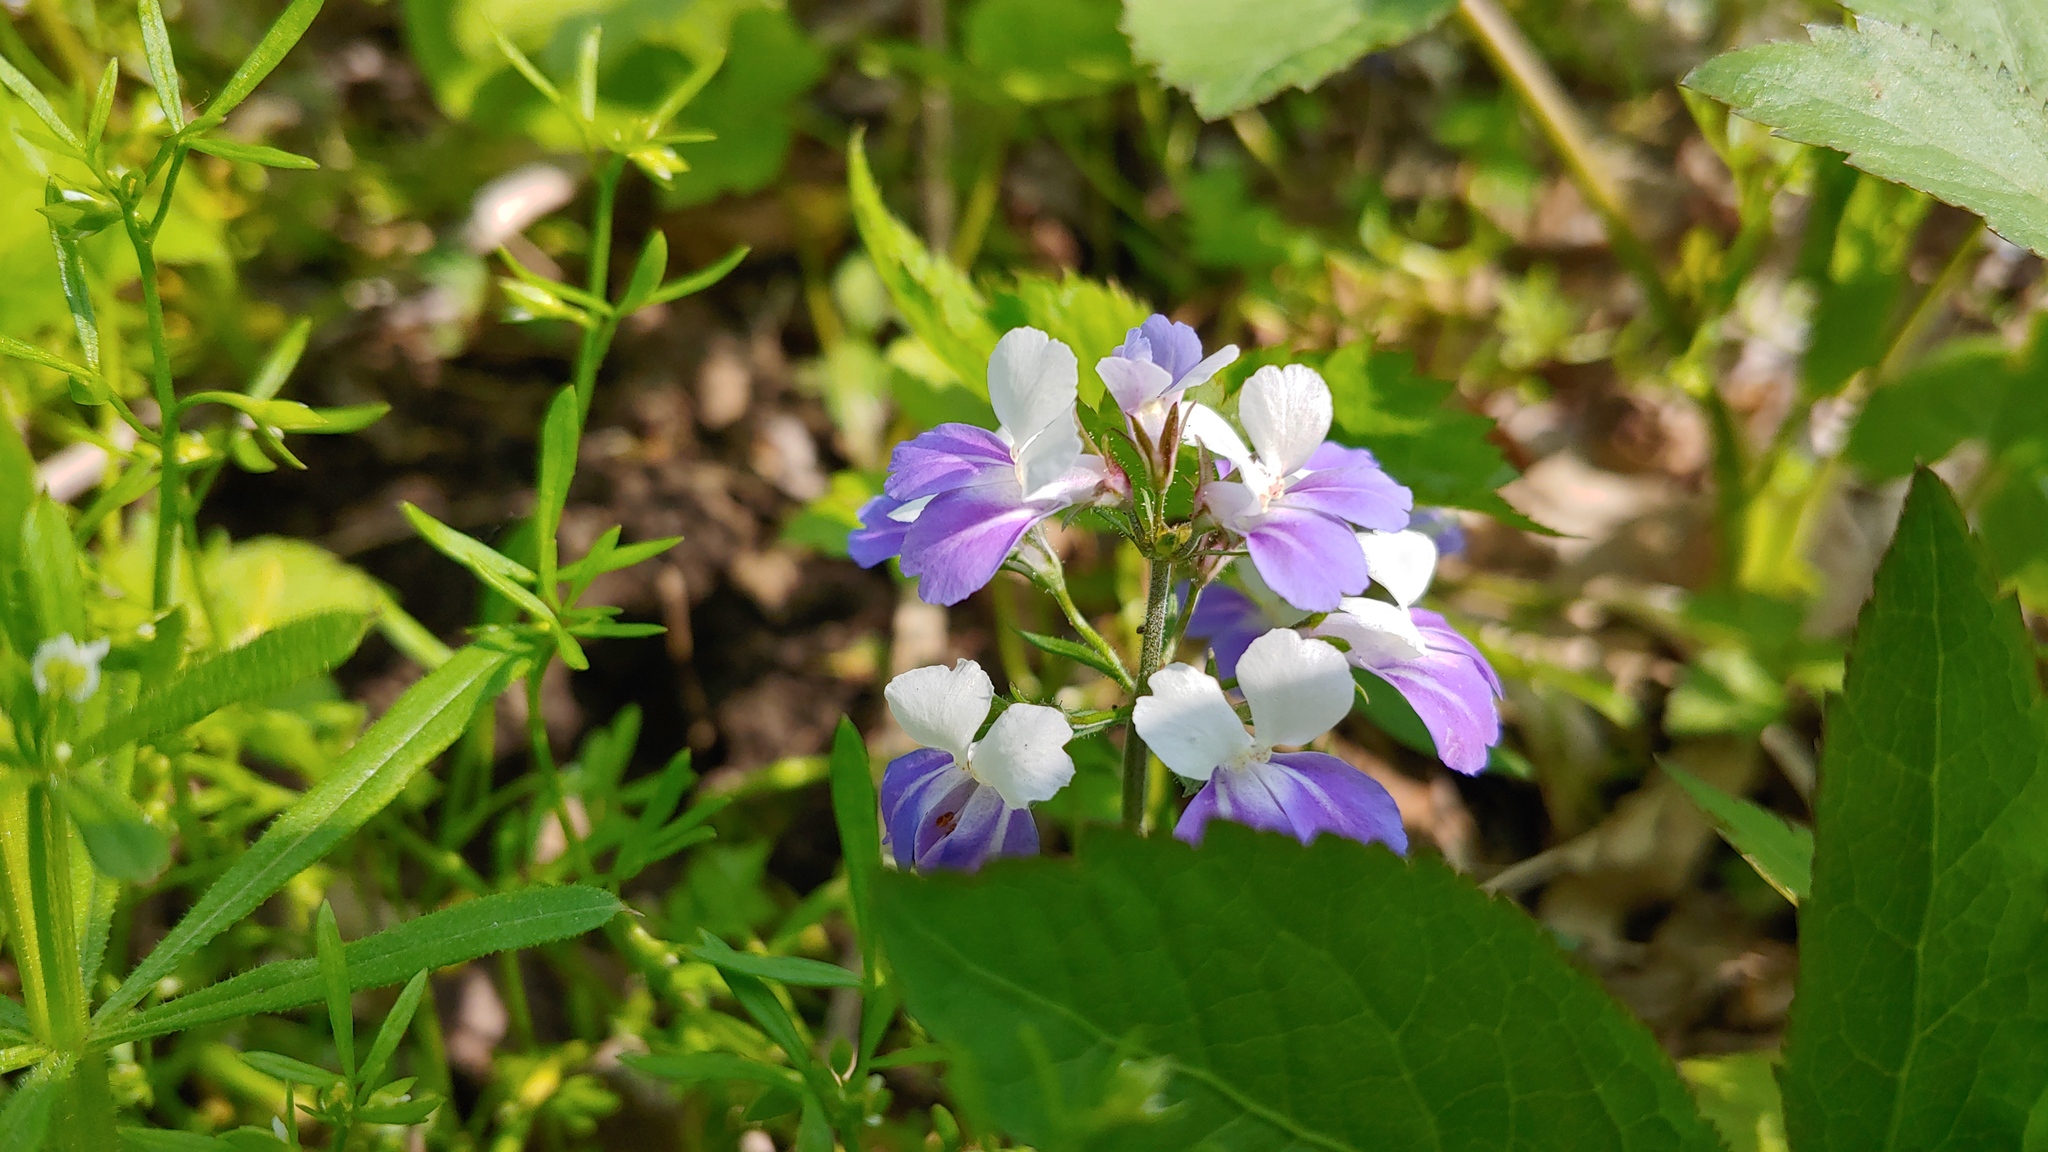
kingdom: Plantae
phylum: Tracheophyta
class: Magnoliopsida
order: Lamiales
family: Plantaginaceae
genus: Collinsia
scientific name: Collinsia verna
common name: Broad-leaved collinsia
